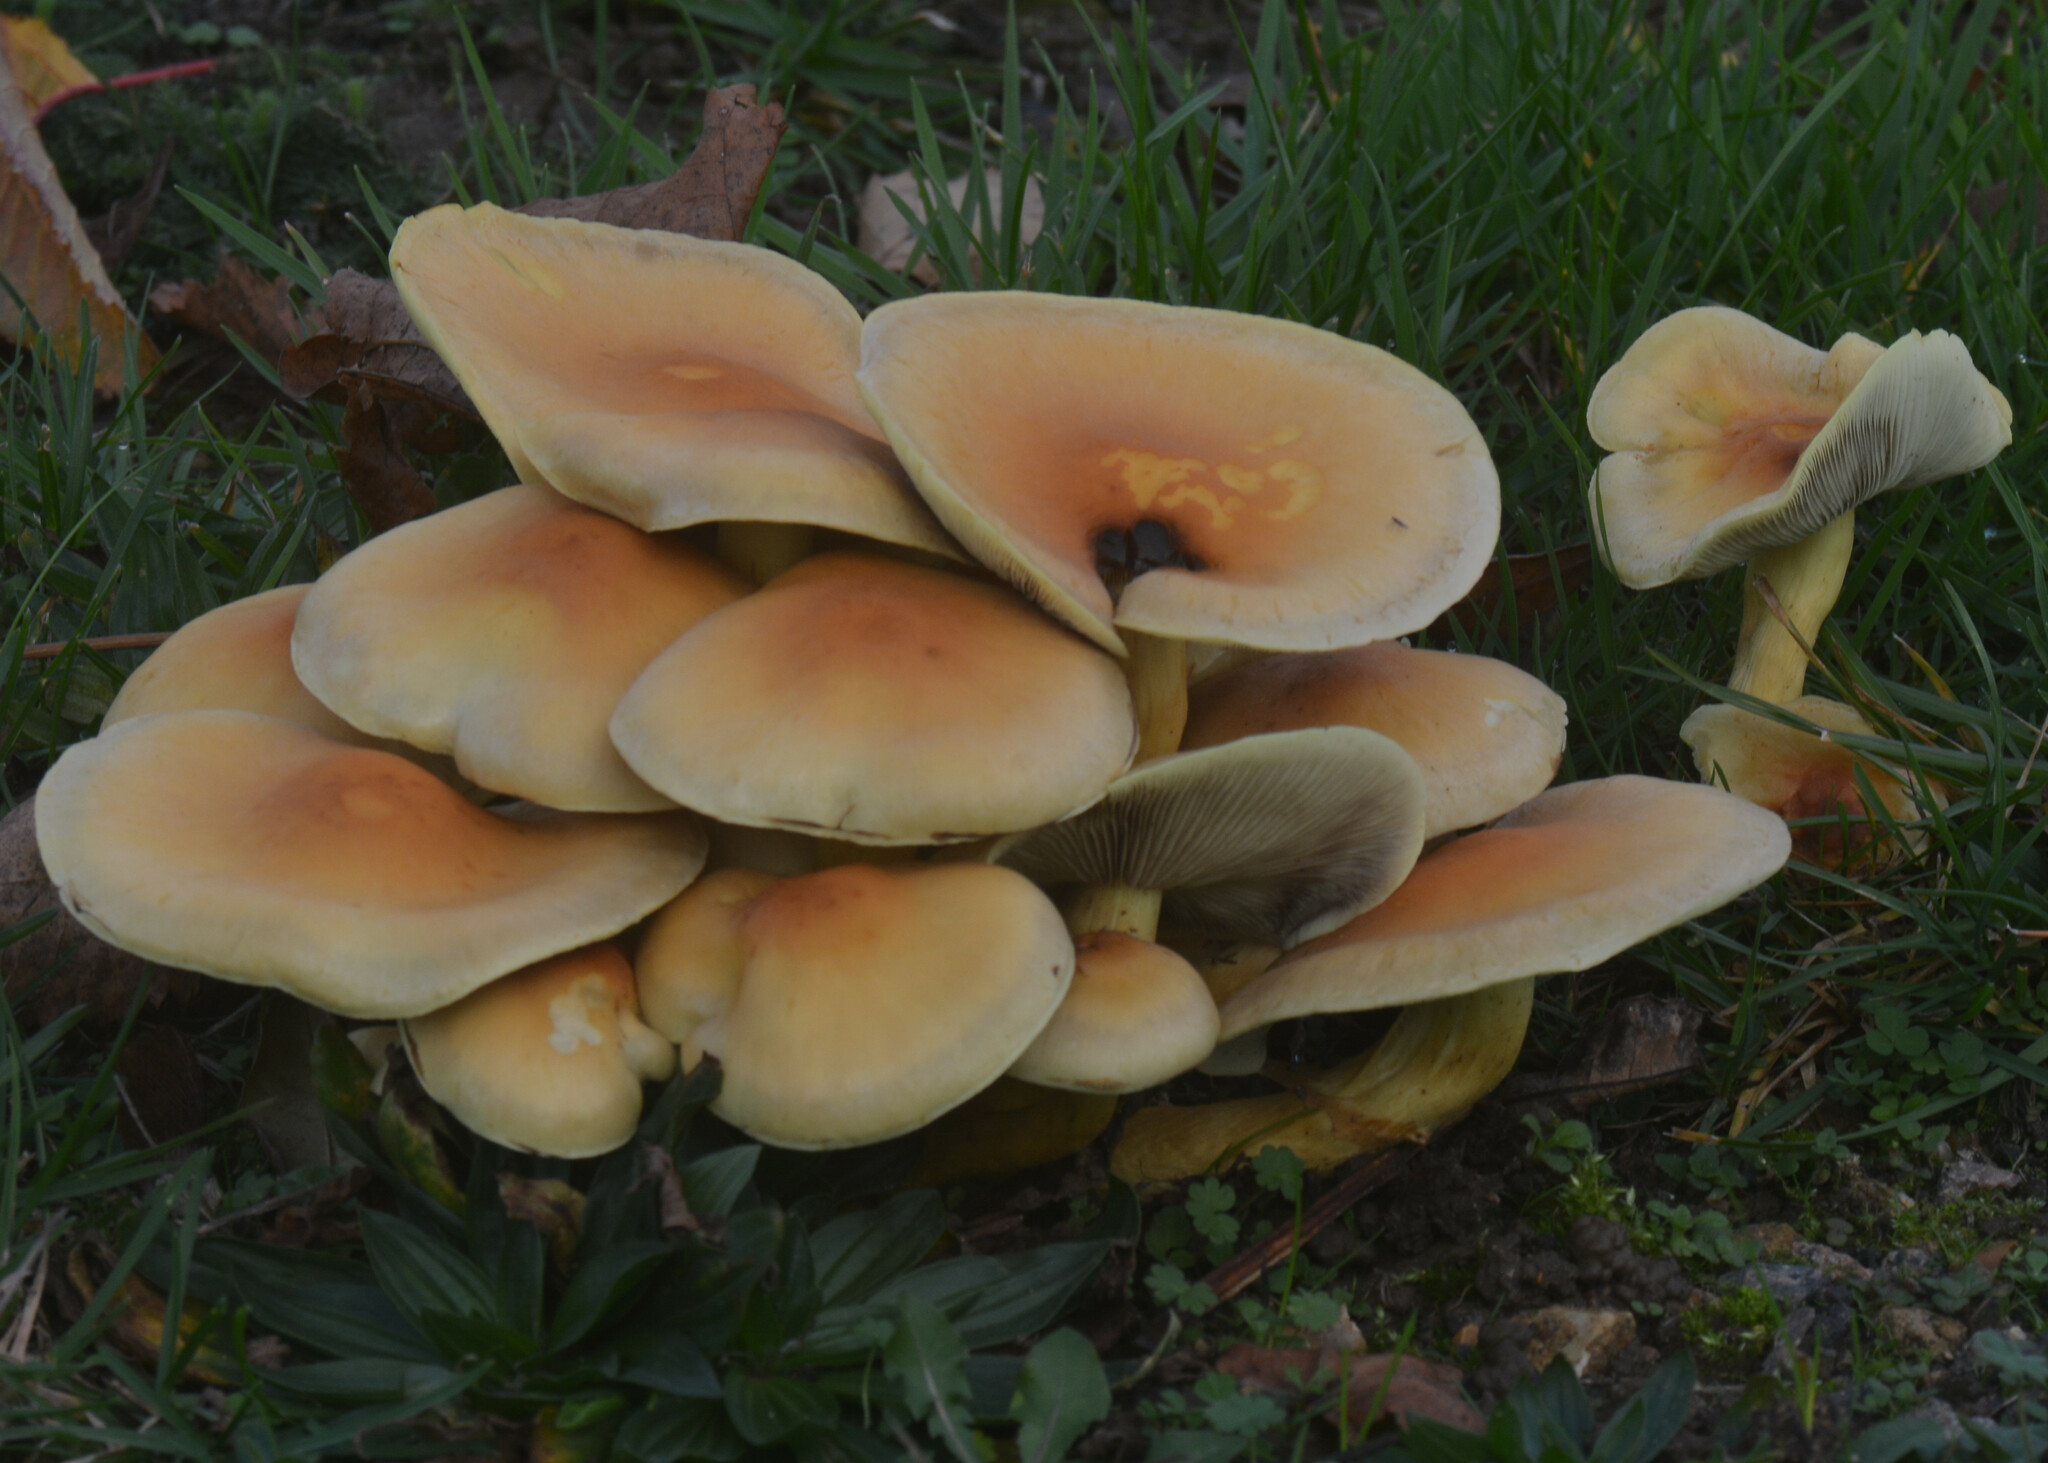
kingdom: Fungi
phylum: Basidiomycota
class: Agaricomycetes
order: Agaricales
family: Strophariaceae
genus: Hypholoma
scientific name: Hypholoma fasciculare
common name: Sulphur tuft
